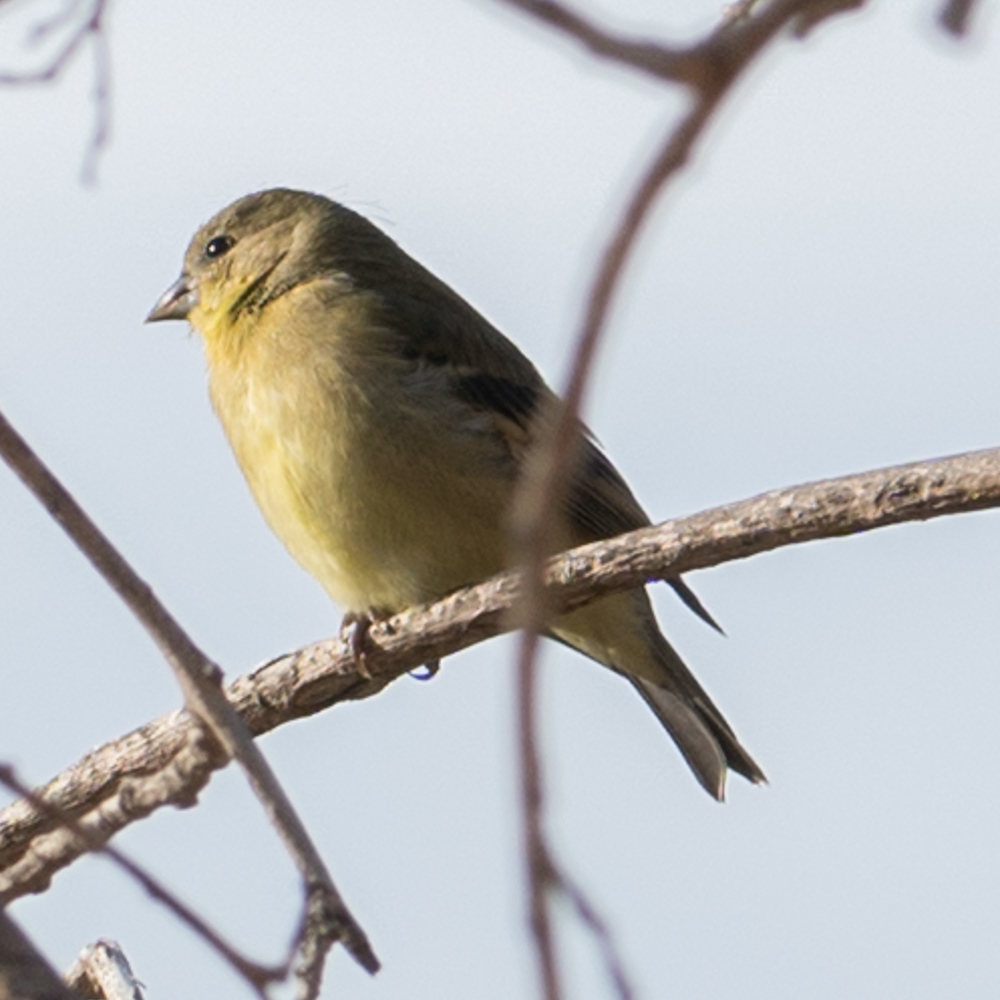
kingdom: Animalia
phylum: Chordata
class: Aves
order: Passeriformes
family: Fringillidae
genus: Spinus
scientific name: Spinus psaltria
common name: Lesser goldfinch
